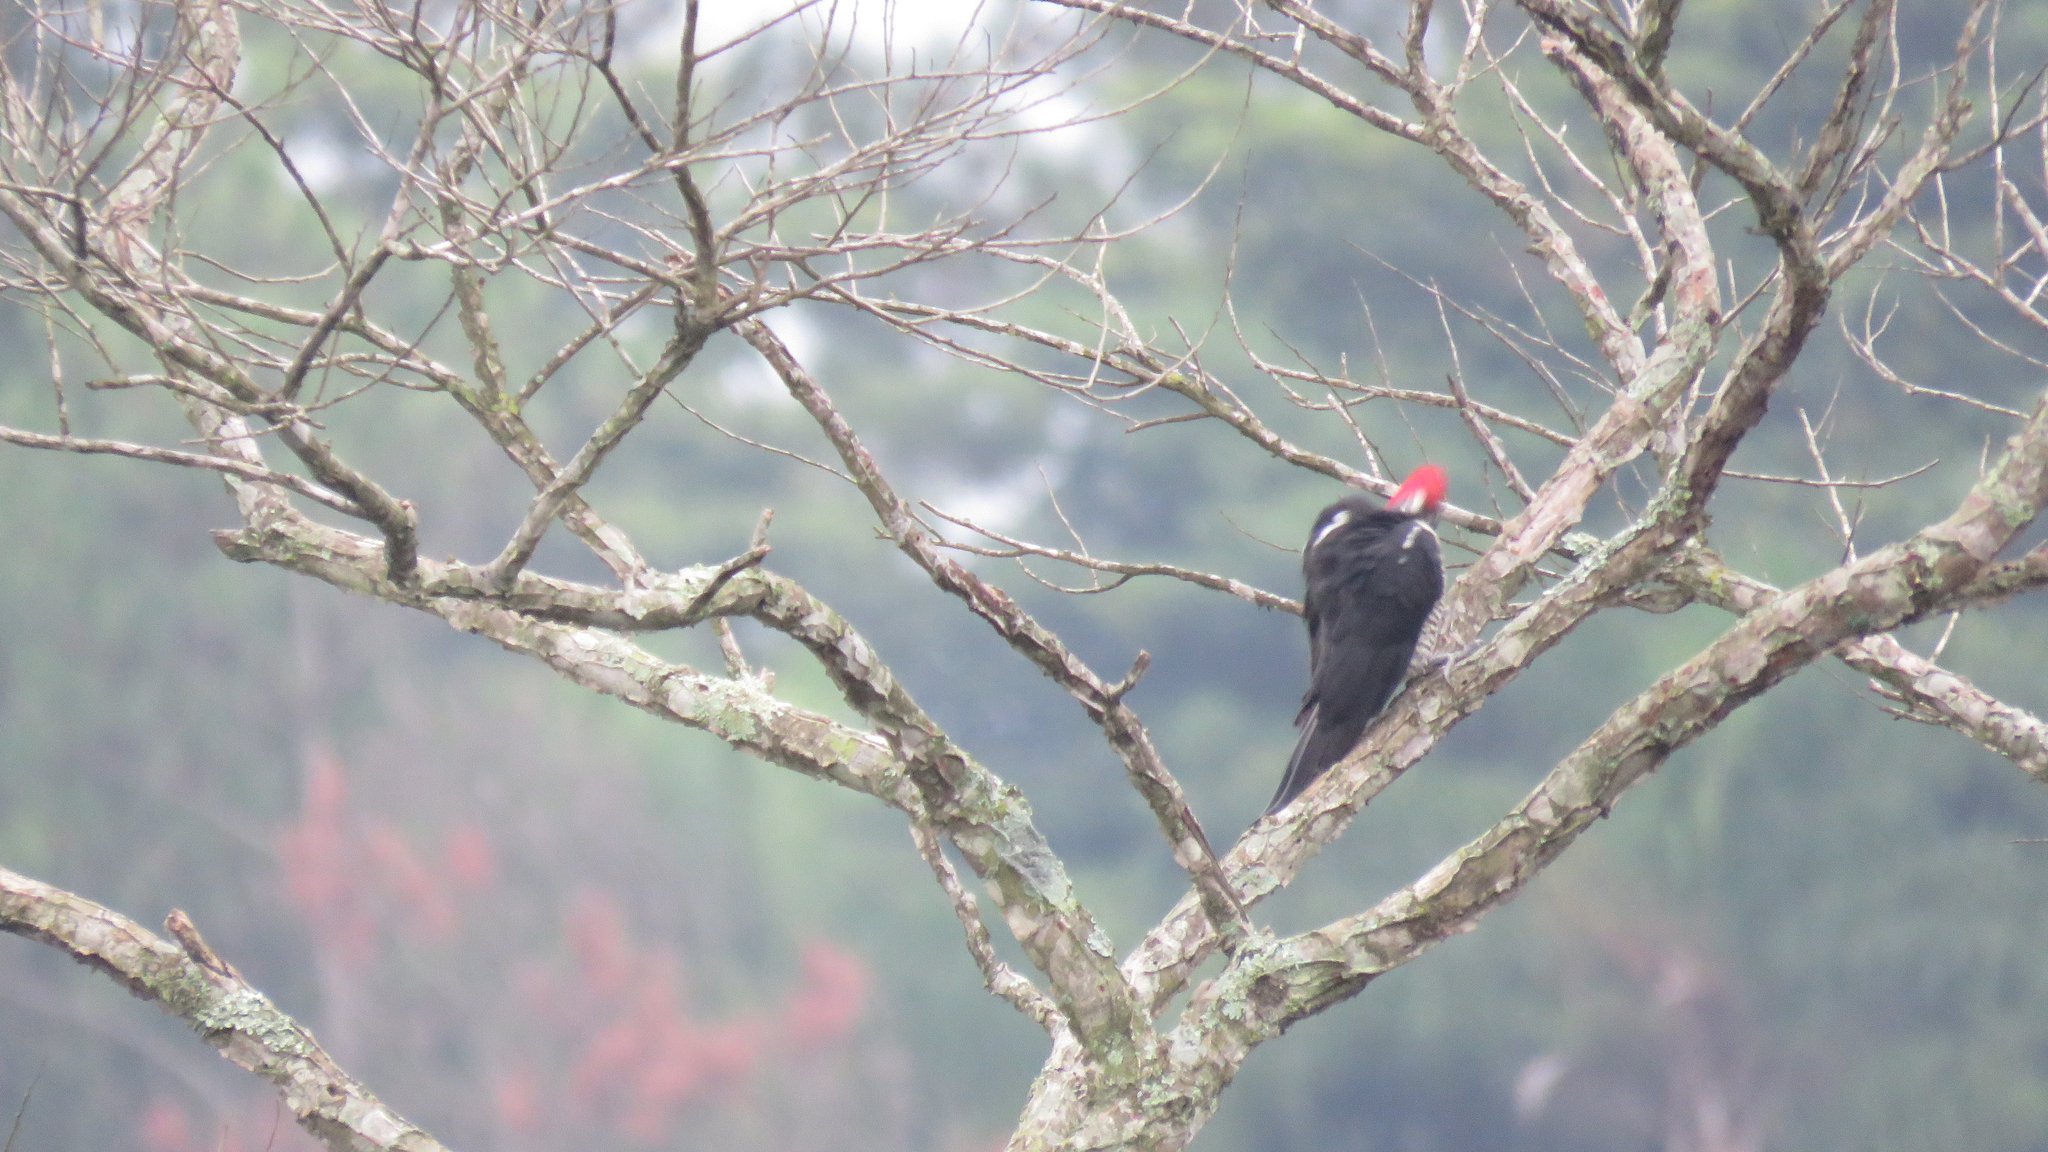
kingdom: Animalia
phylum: Chordata
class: Aves
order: Piciformes
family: Picidae
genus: Dryocopus
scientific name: Dryocopus lineatus
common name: Lineated woodpecker
